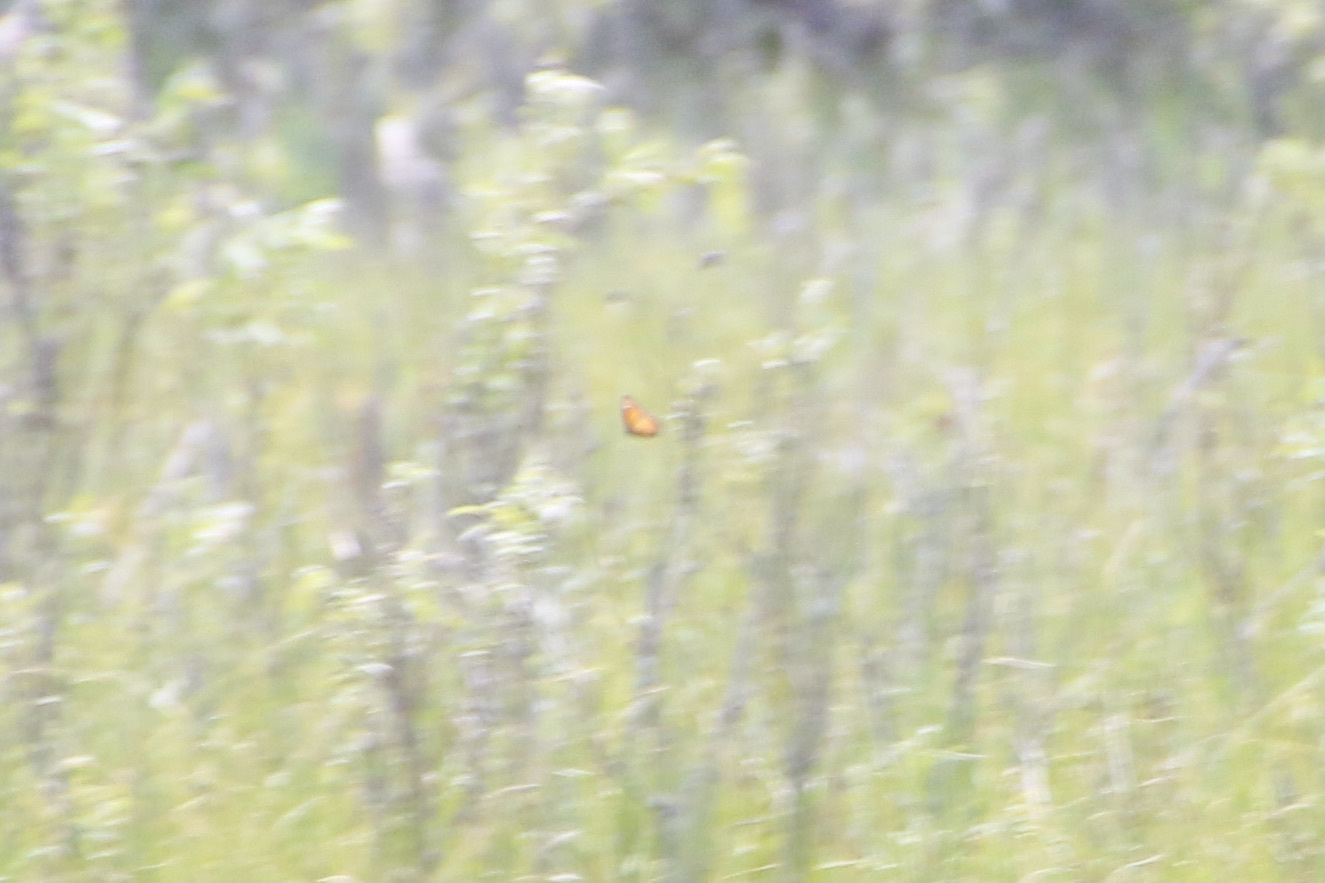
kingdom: Animalia
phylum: Arthropoda
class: Insecta
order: Lepidoptera
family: Nymphalidae
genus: Limenitis
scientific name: Limenitis archippus
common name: Viceroy
